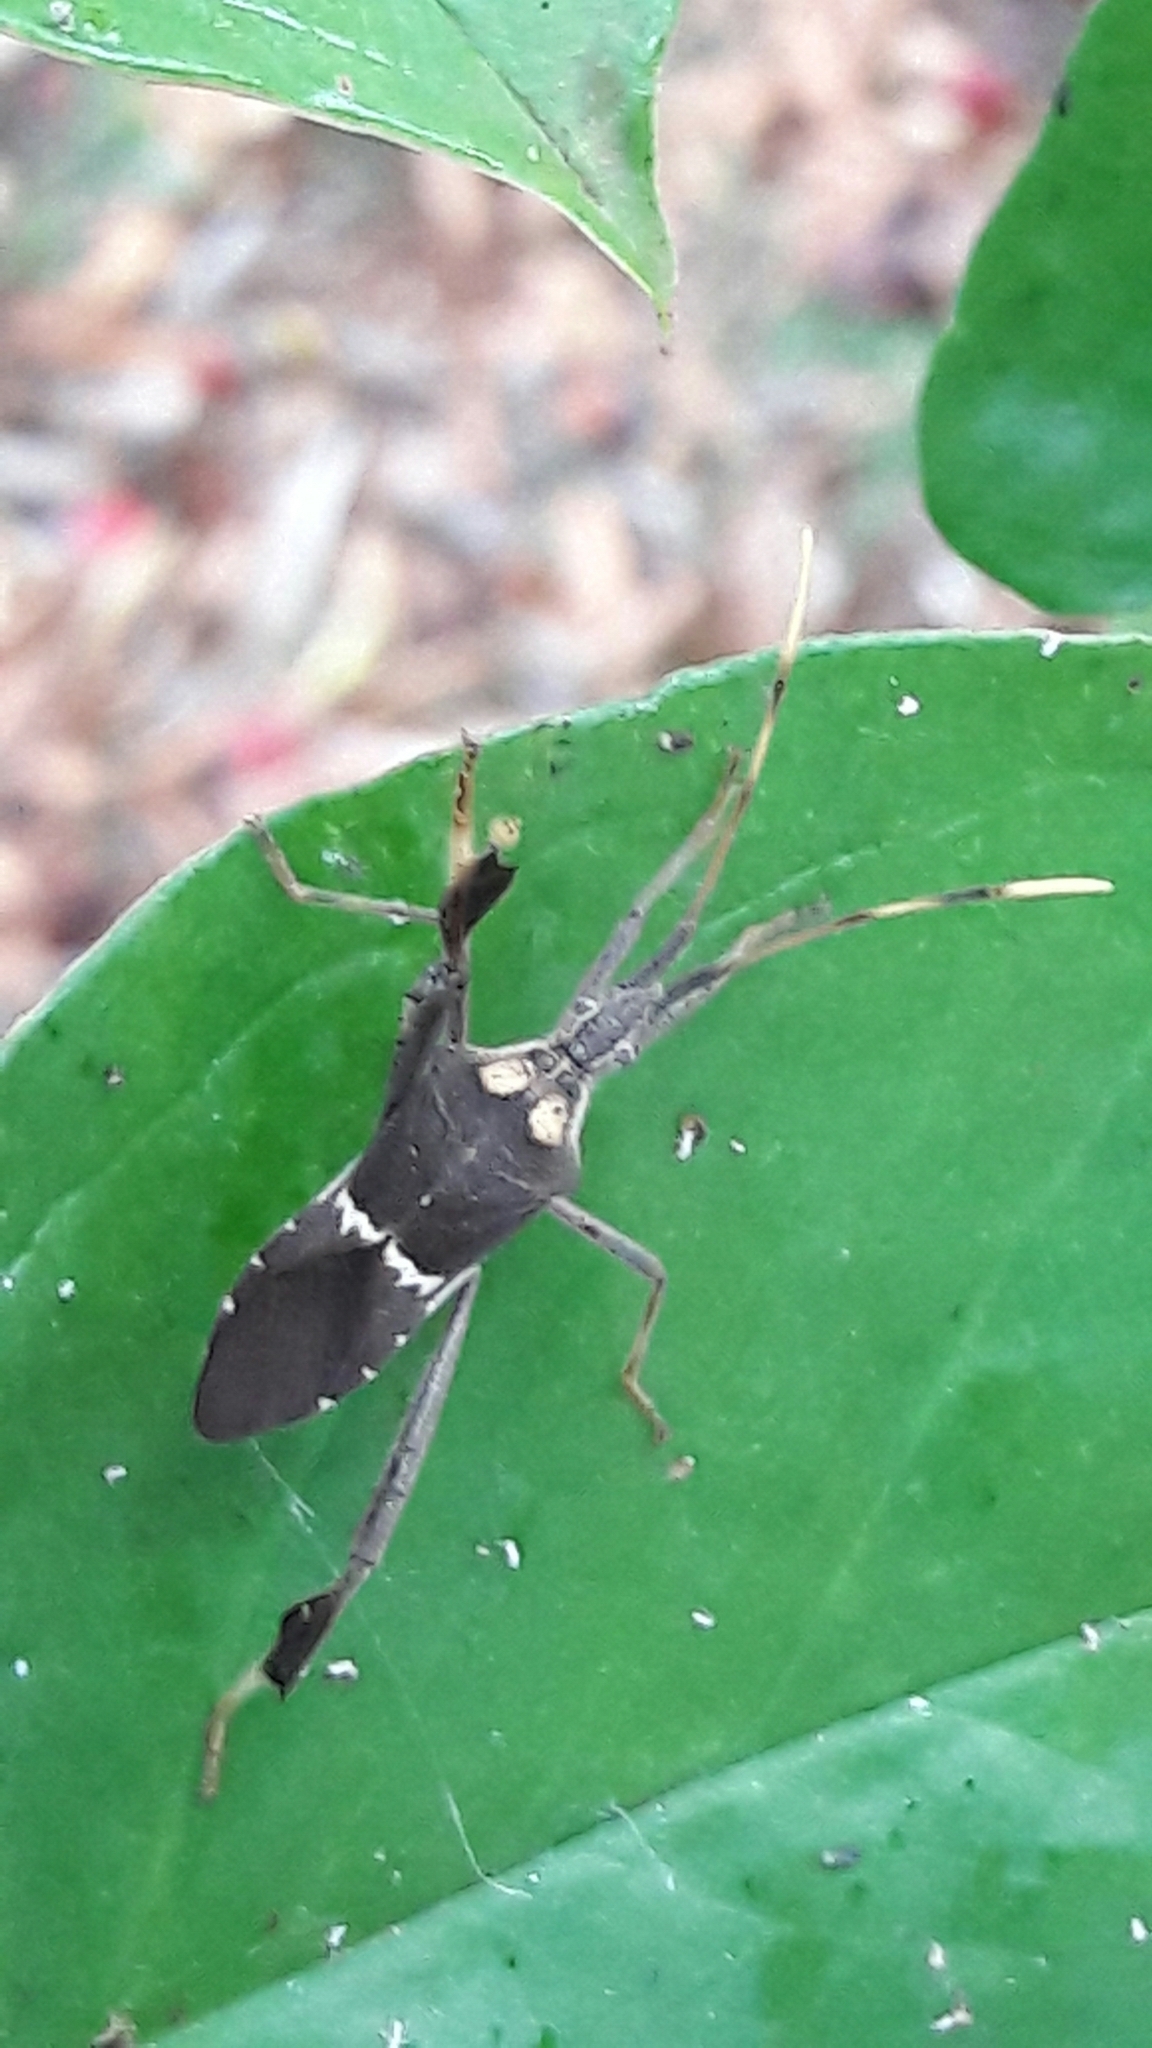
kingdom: Animalia
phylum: Arthropoda
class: Insecta
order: Hemiptera
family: Coreidae
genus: Leptoglossus
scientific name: Leptoglossus zonatus
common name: Large-legged bug
